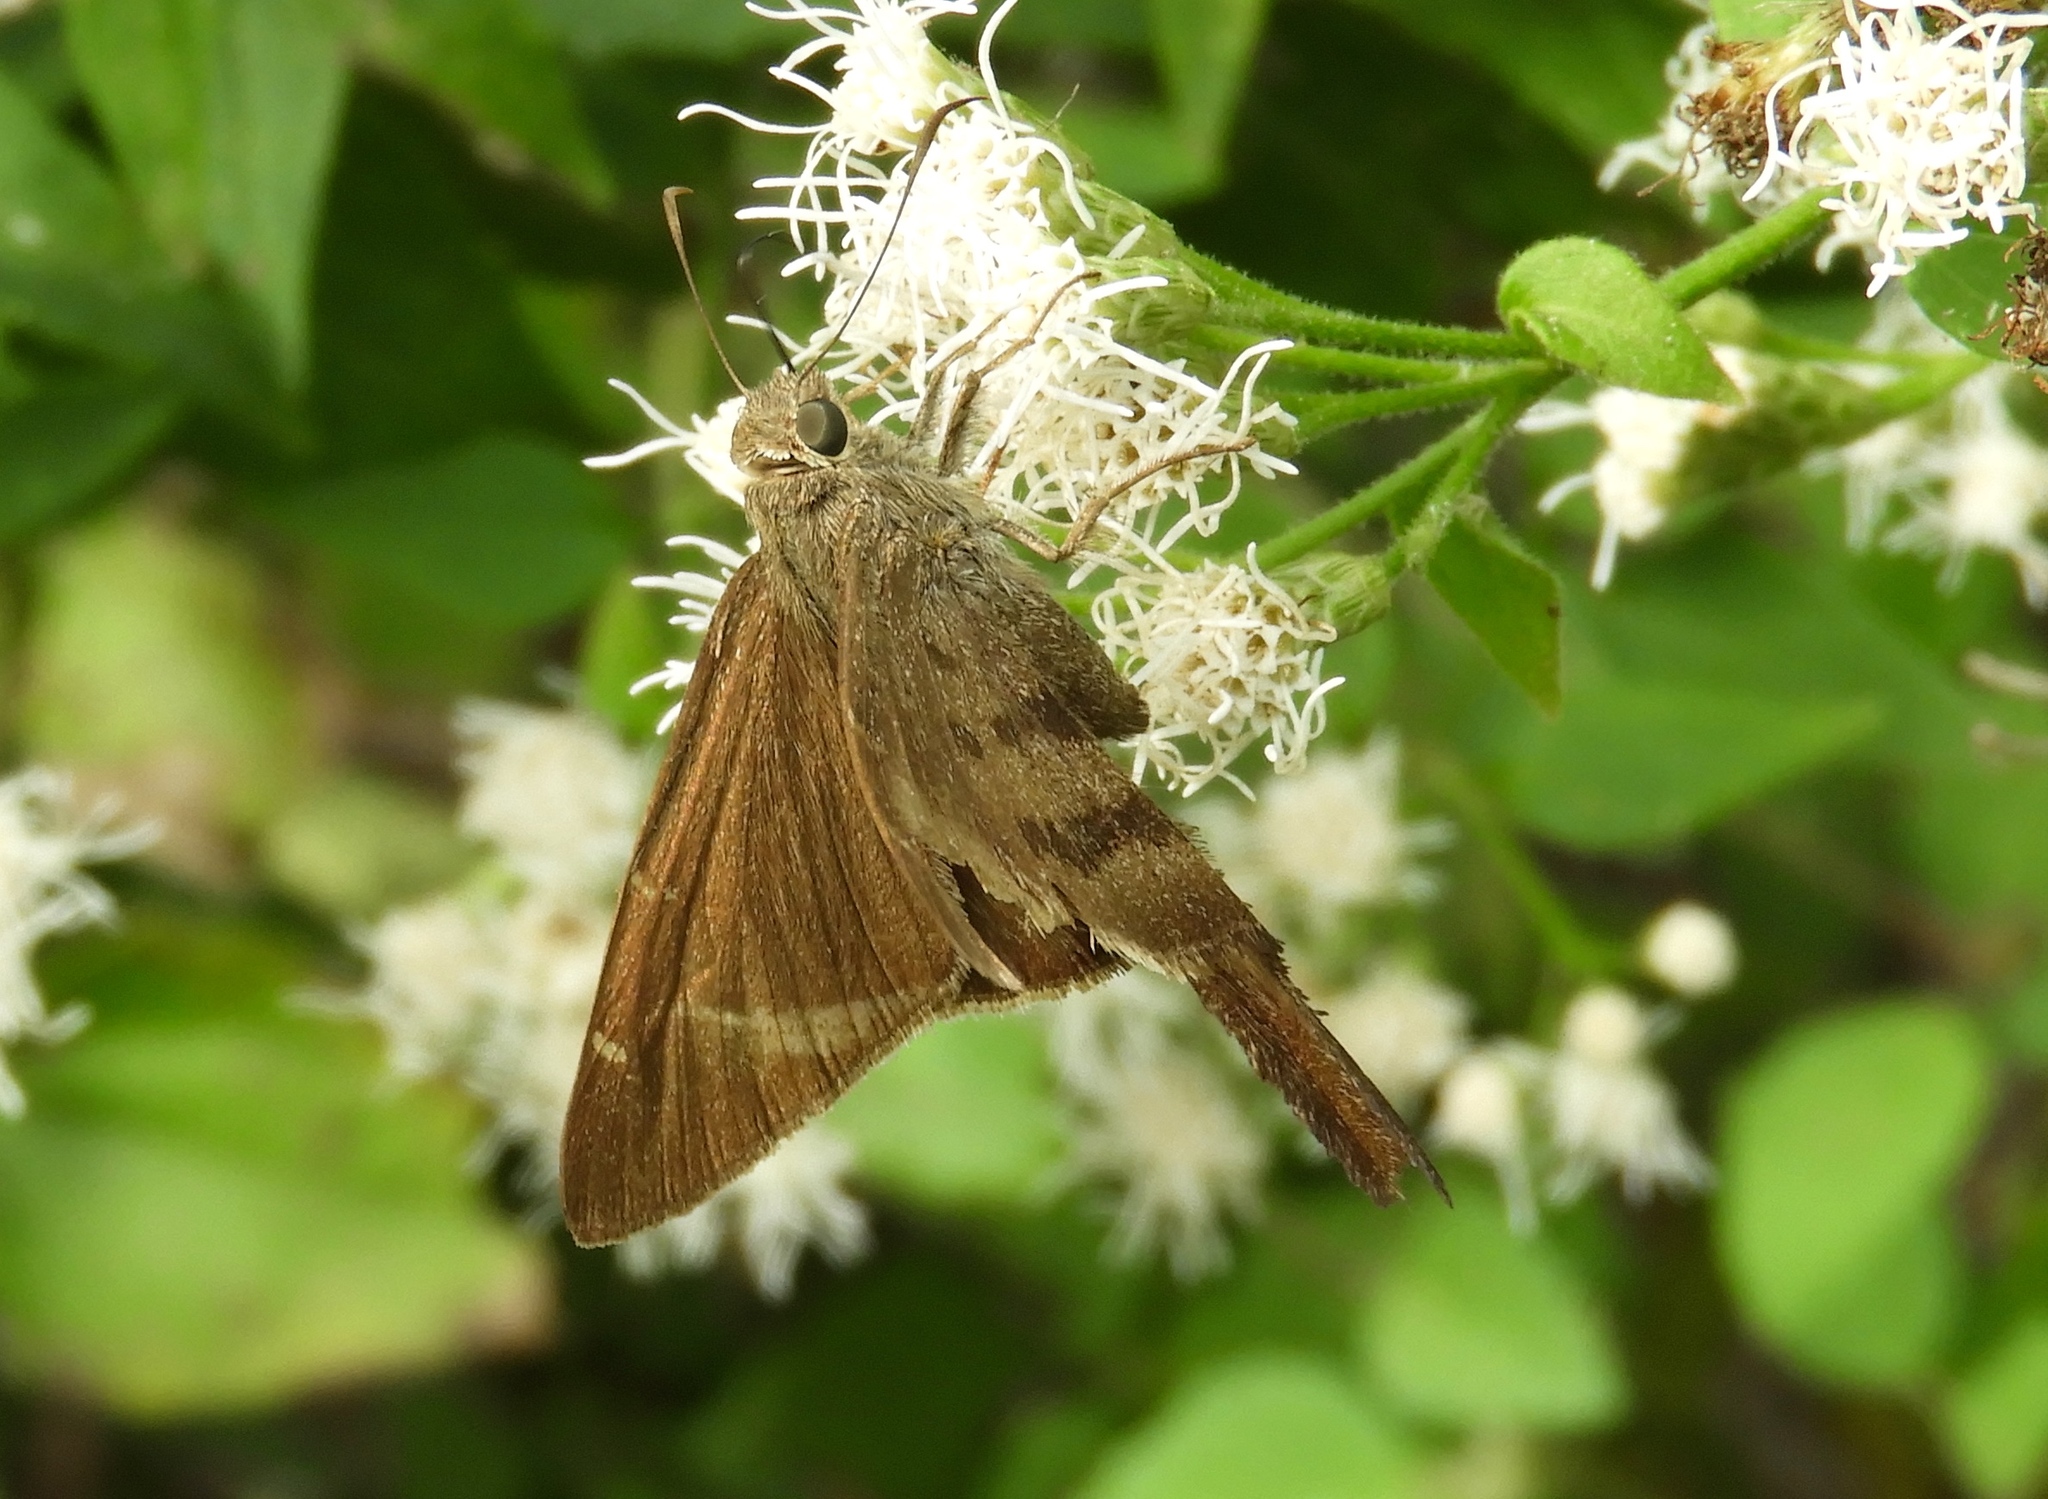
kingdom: Animalia
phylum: Arthropoda
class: Insecta
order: Lepidoptera
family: Hesperiidae
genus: Urbanus
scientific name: Urbanus procne
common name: Brown longtail
